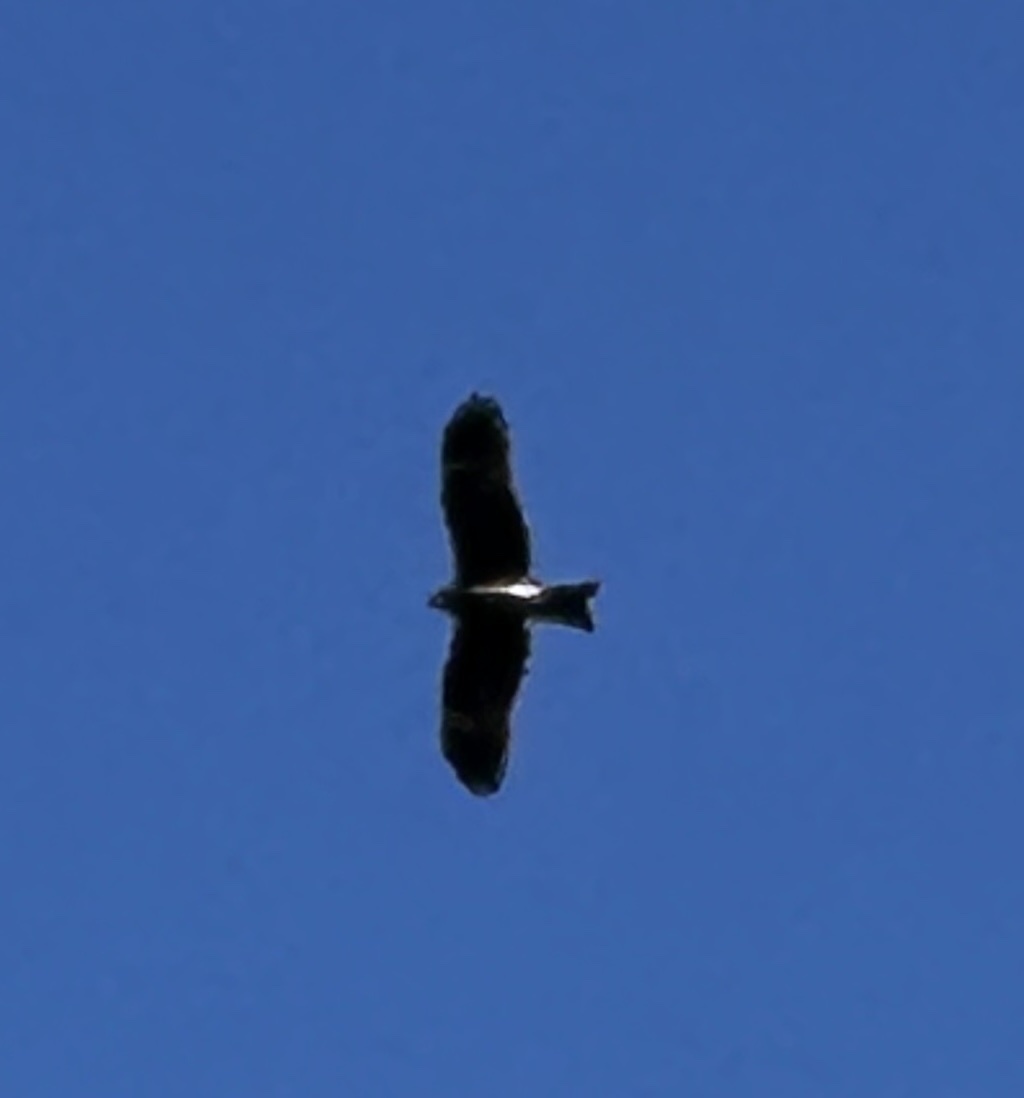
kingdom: Animalia
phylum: Chordata
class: Aves
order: Accipitriformes
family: Accipitridae
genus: Milvus
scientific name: Milvus migrans
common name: Black kite
